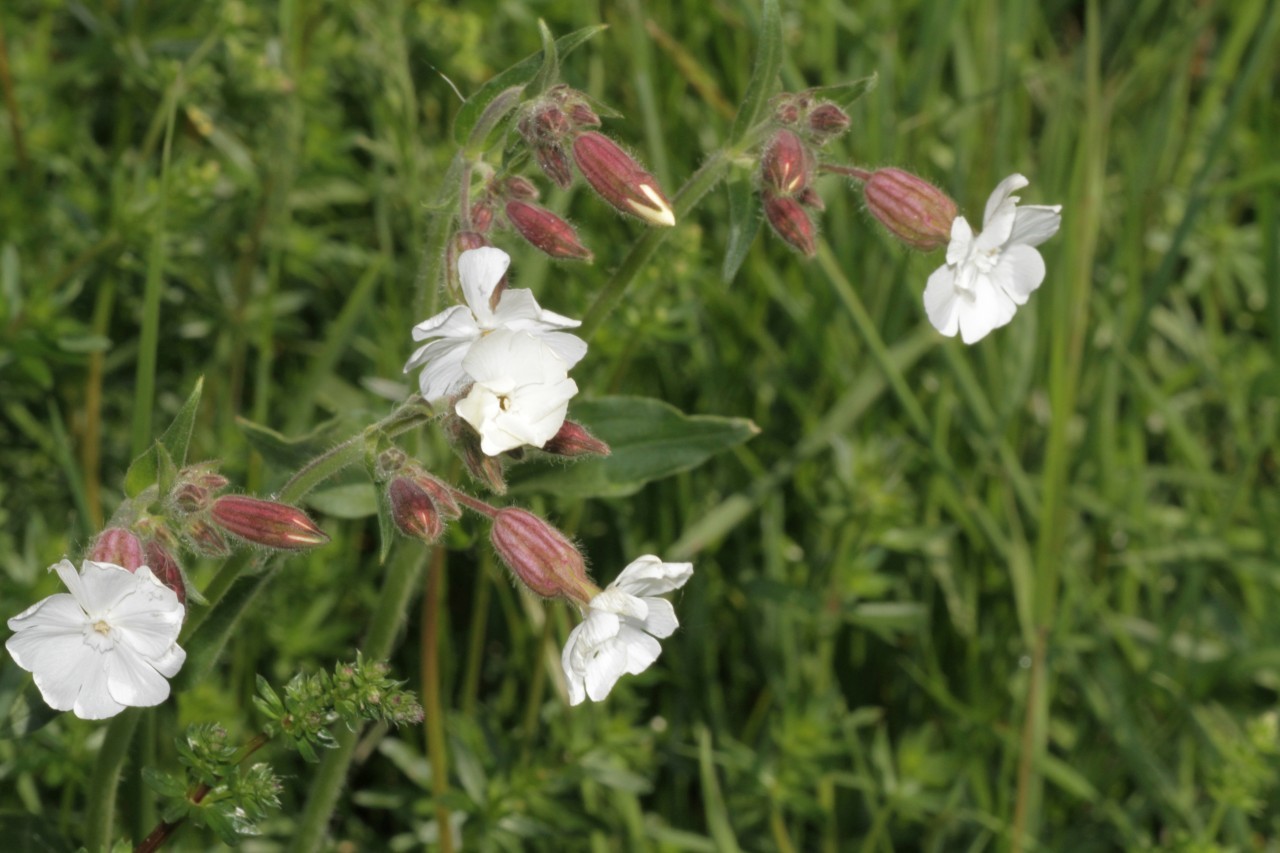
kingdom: Plantae
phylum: Tracheophyta
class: Magnoliopsida
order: Caryophyllales
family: Caryophyllaceae
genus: Silene
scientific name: Silene latifolia
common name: White campion
